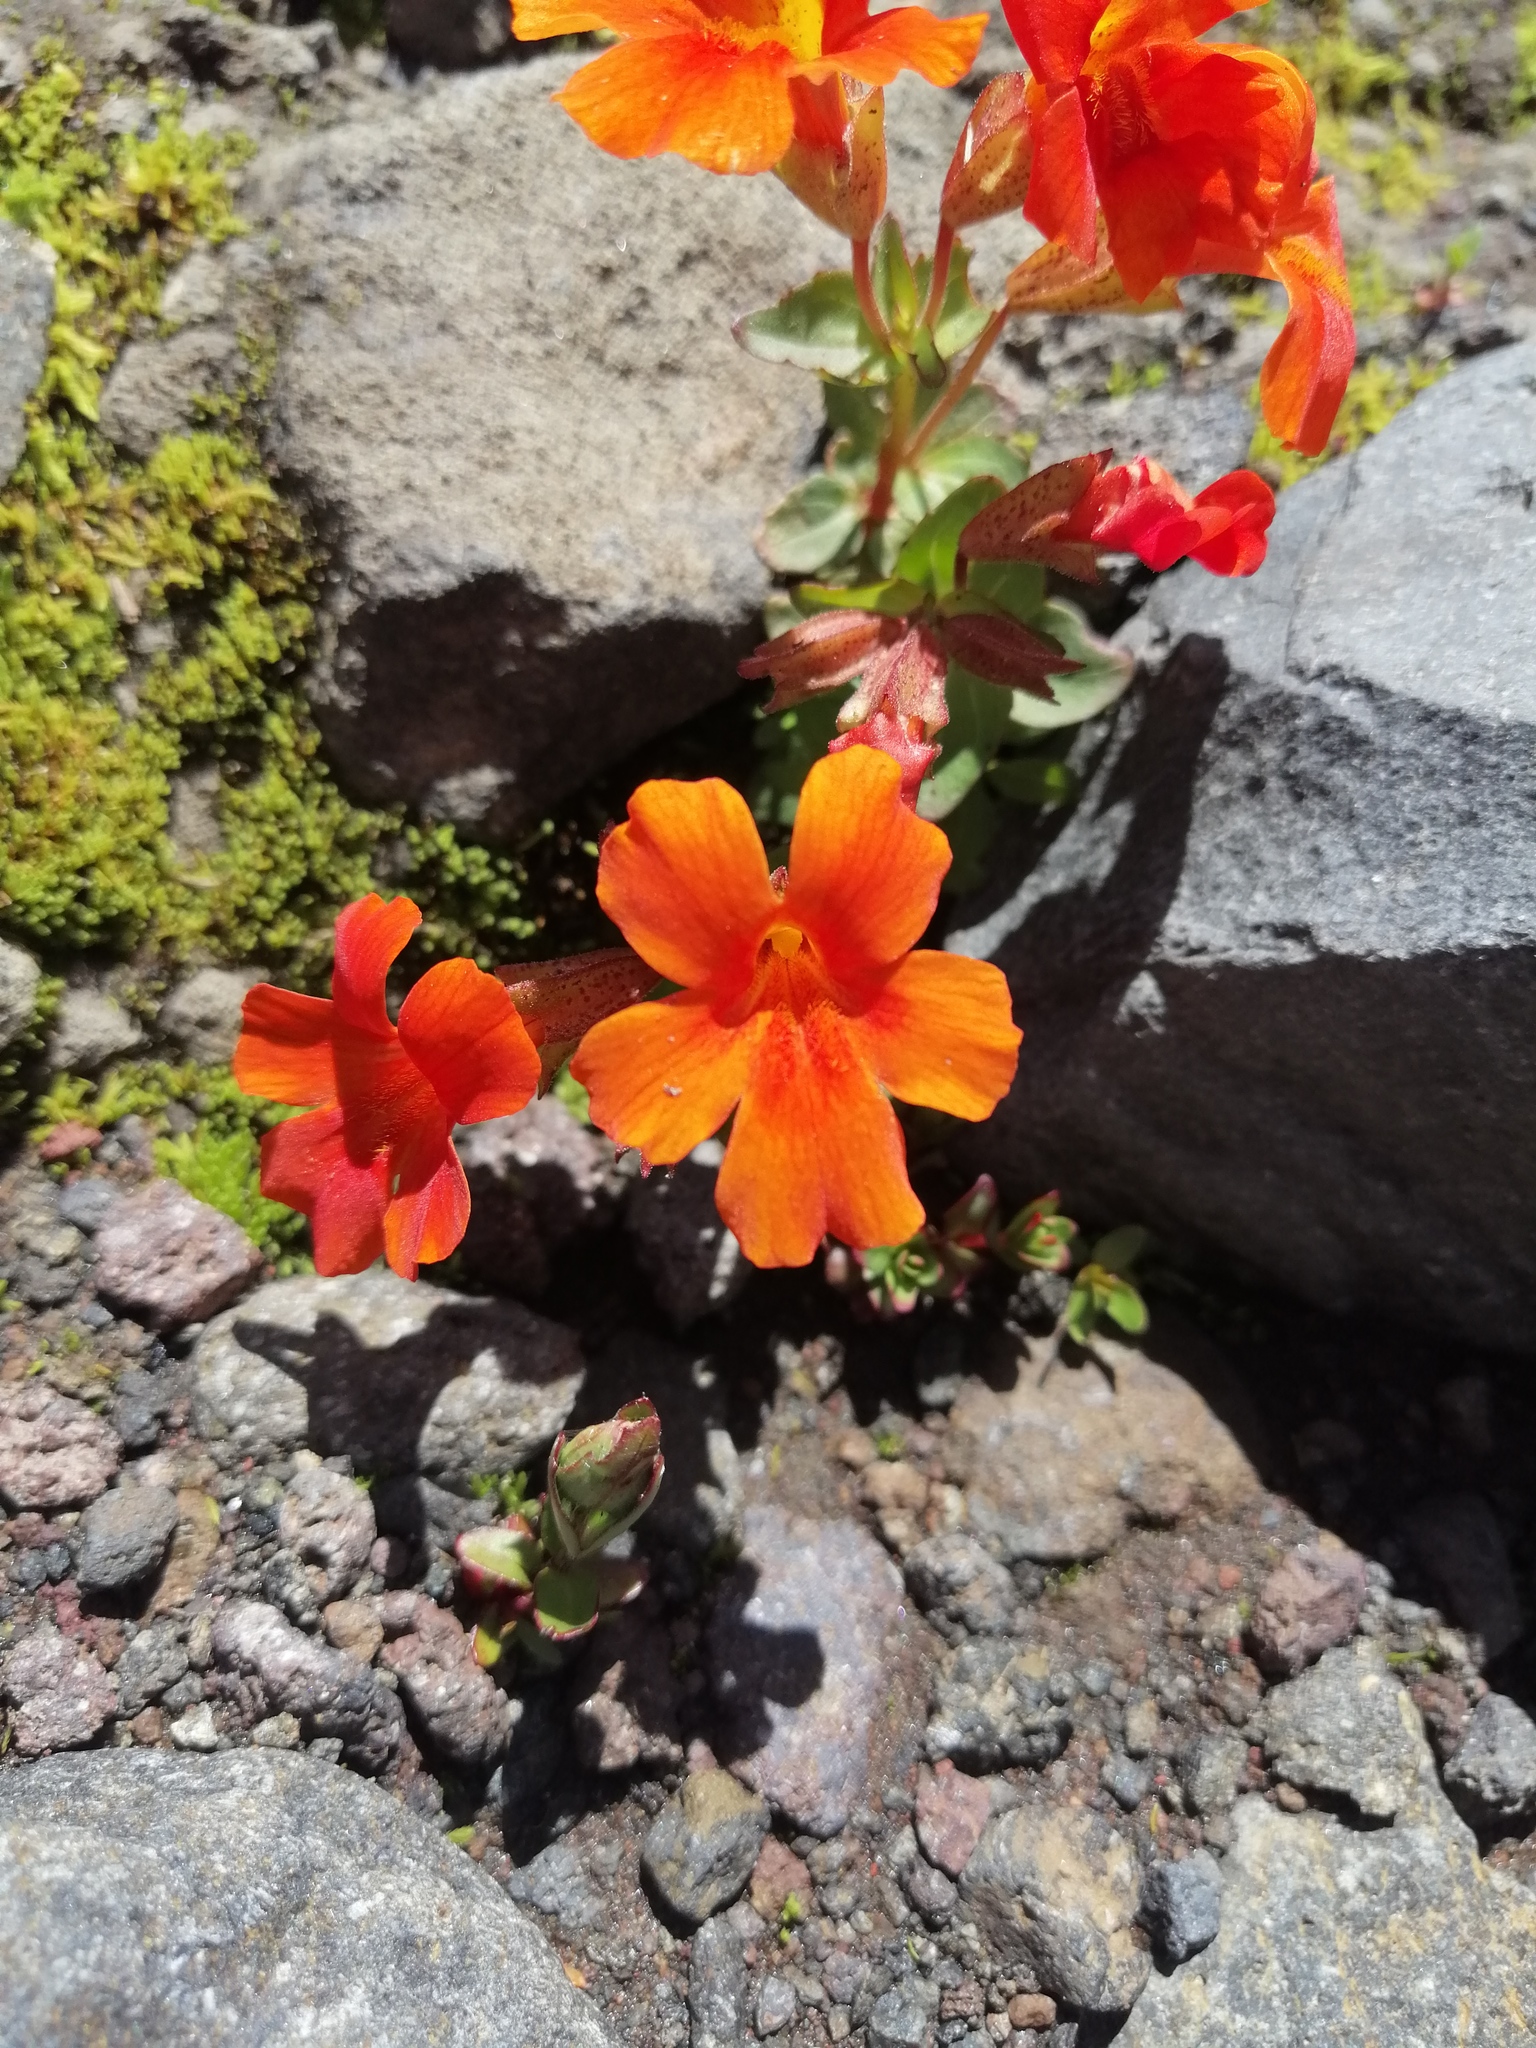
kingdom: Plantae
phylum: Tracheophyta
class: Magnoliopsida
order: Lamiales
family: Phrymaceae
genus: Erythranthe
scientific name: Erythranthe cuprea
